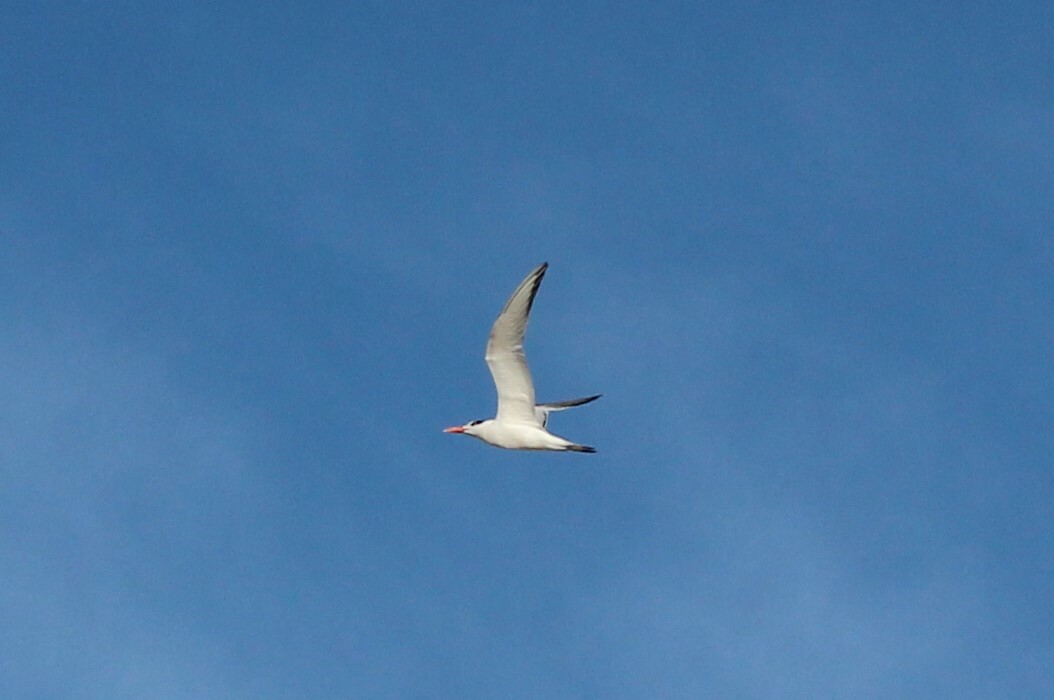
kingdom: Animalia
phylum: Chordata
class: Aves
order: Charadriiformes
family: Laridae
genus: Thalasseus
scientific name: Thalasseus maximus
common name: Royal tern
